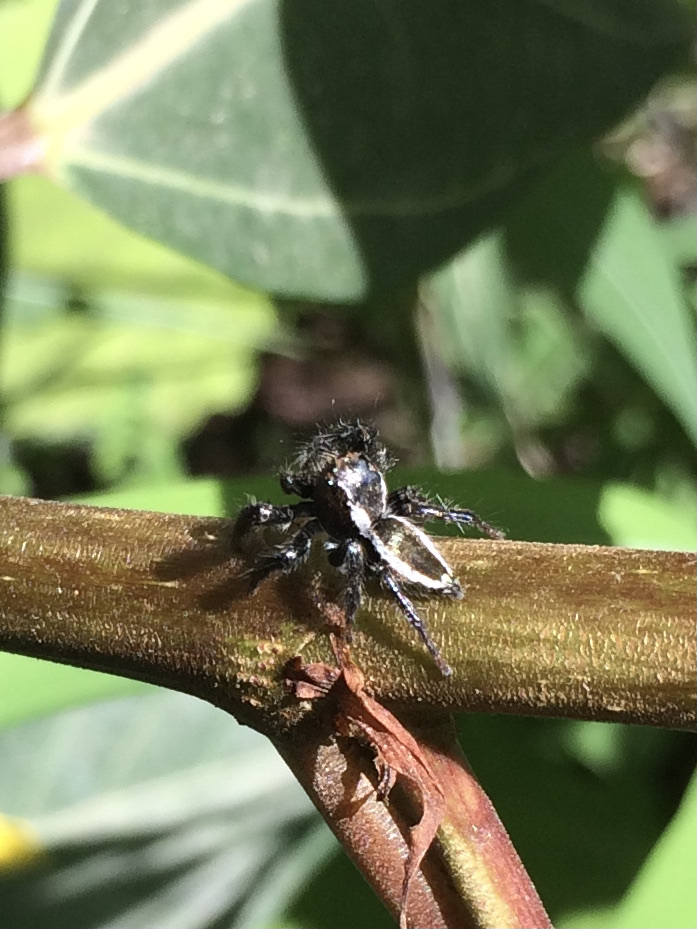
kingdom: Animalia
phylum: Arthropoda
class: Arachnida
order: Araneae
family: Salticidae
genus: Carrhotus
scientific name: Carrhotus viduus
